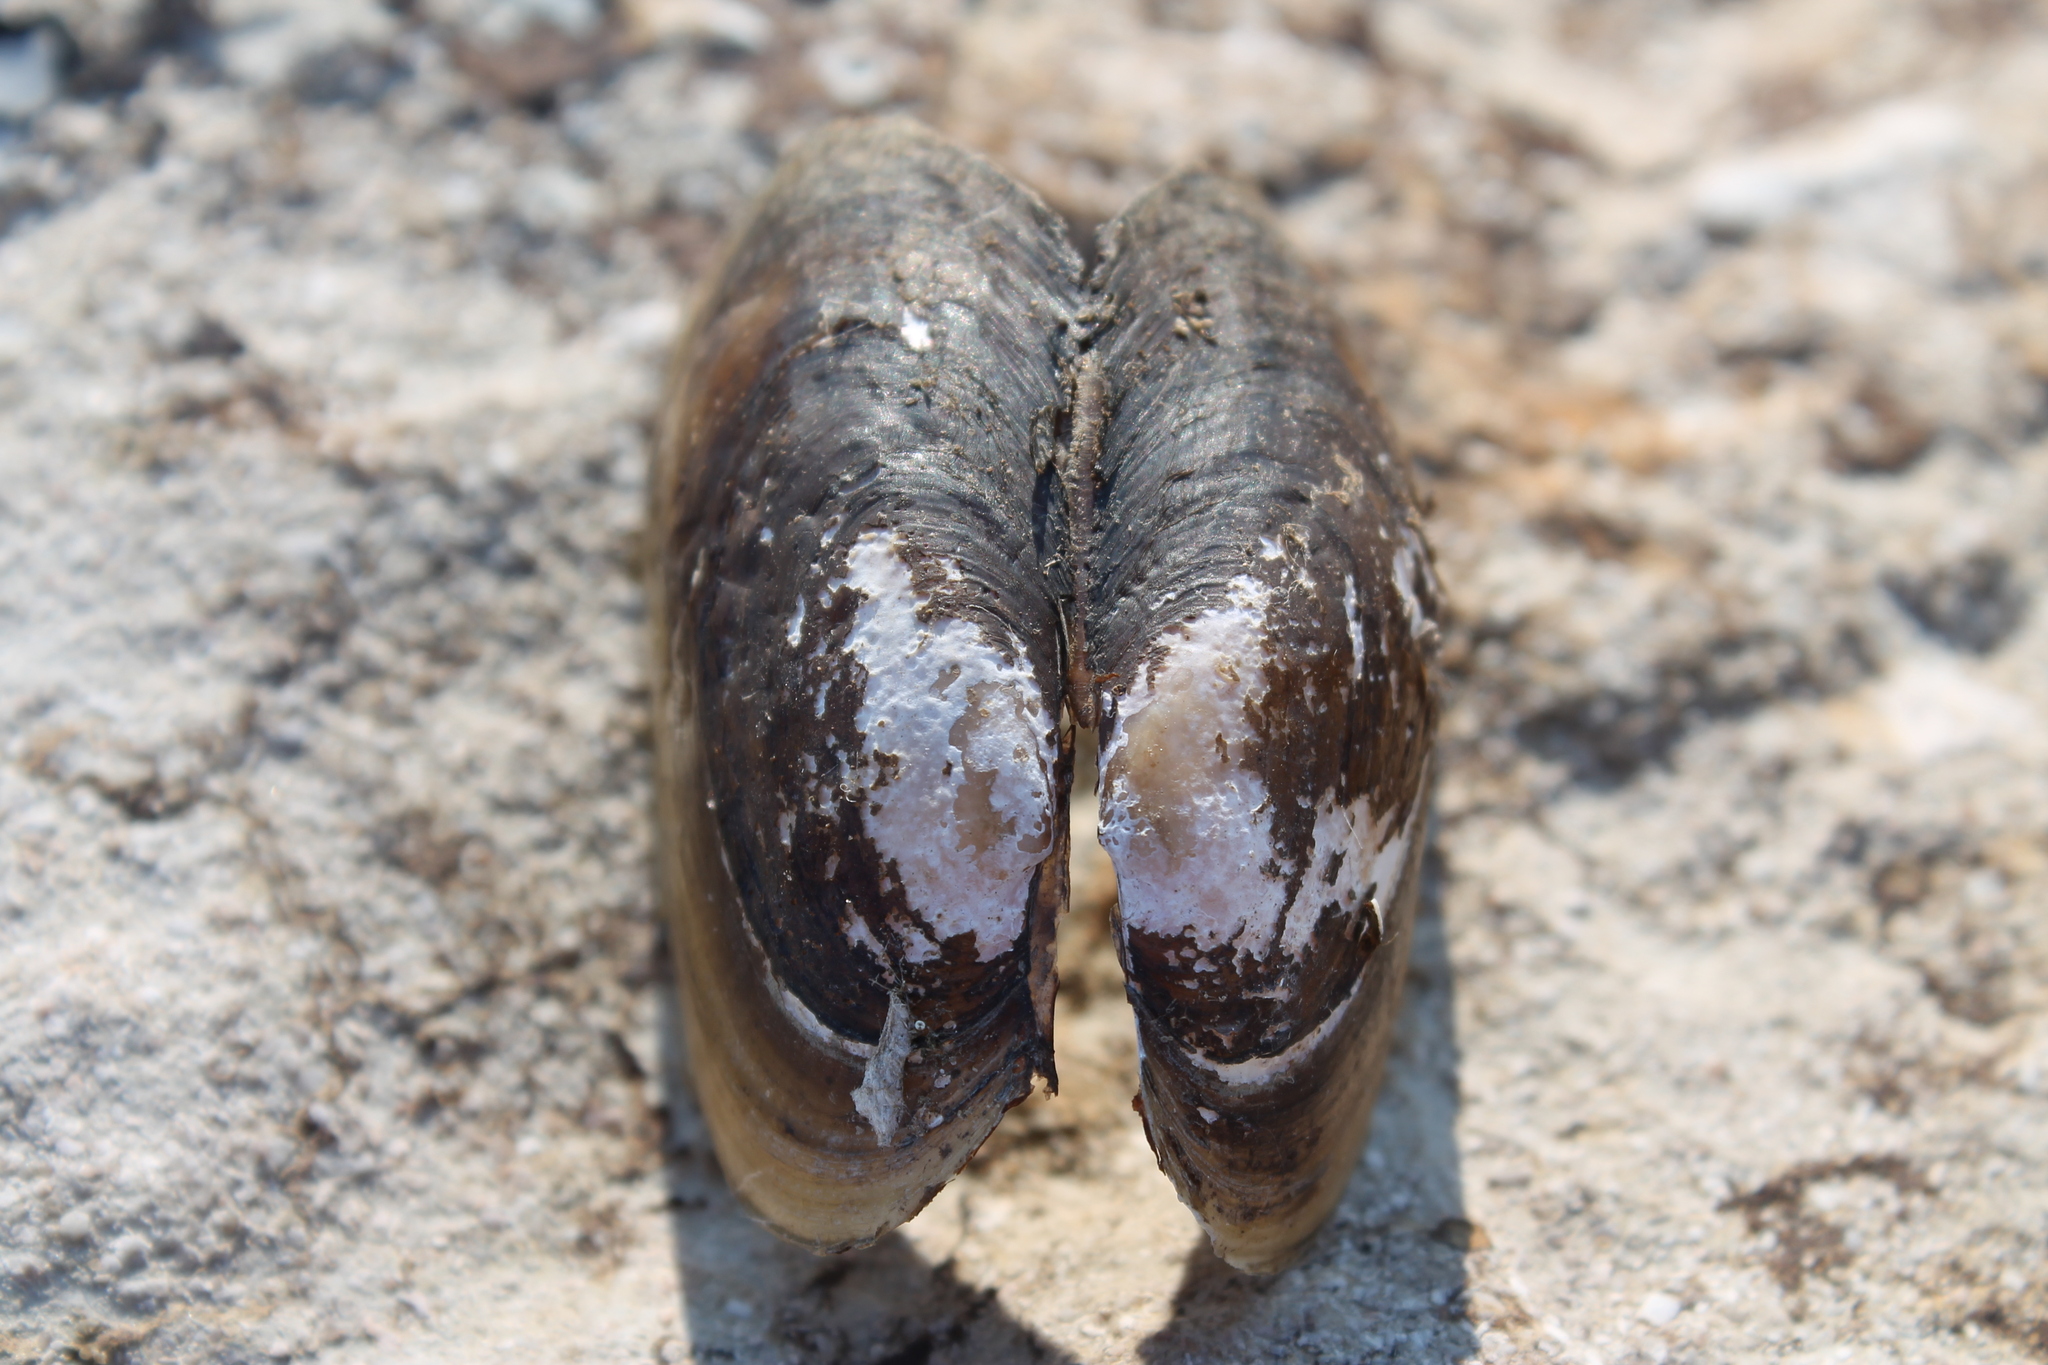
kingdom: Animalia
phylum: Mollusca
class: Bivalvia
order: Unionida
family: Unionidae
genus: Potamilus
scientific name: Potamilus fragilis
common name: Fragile papershell
